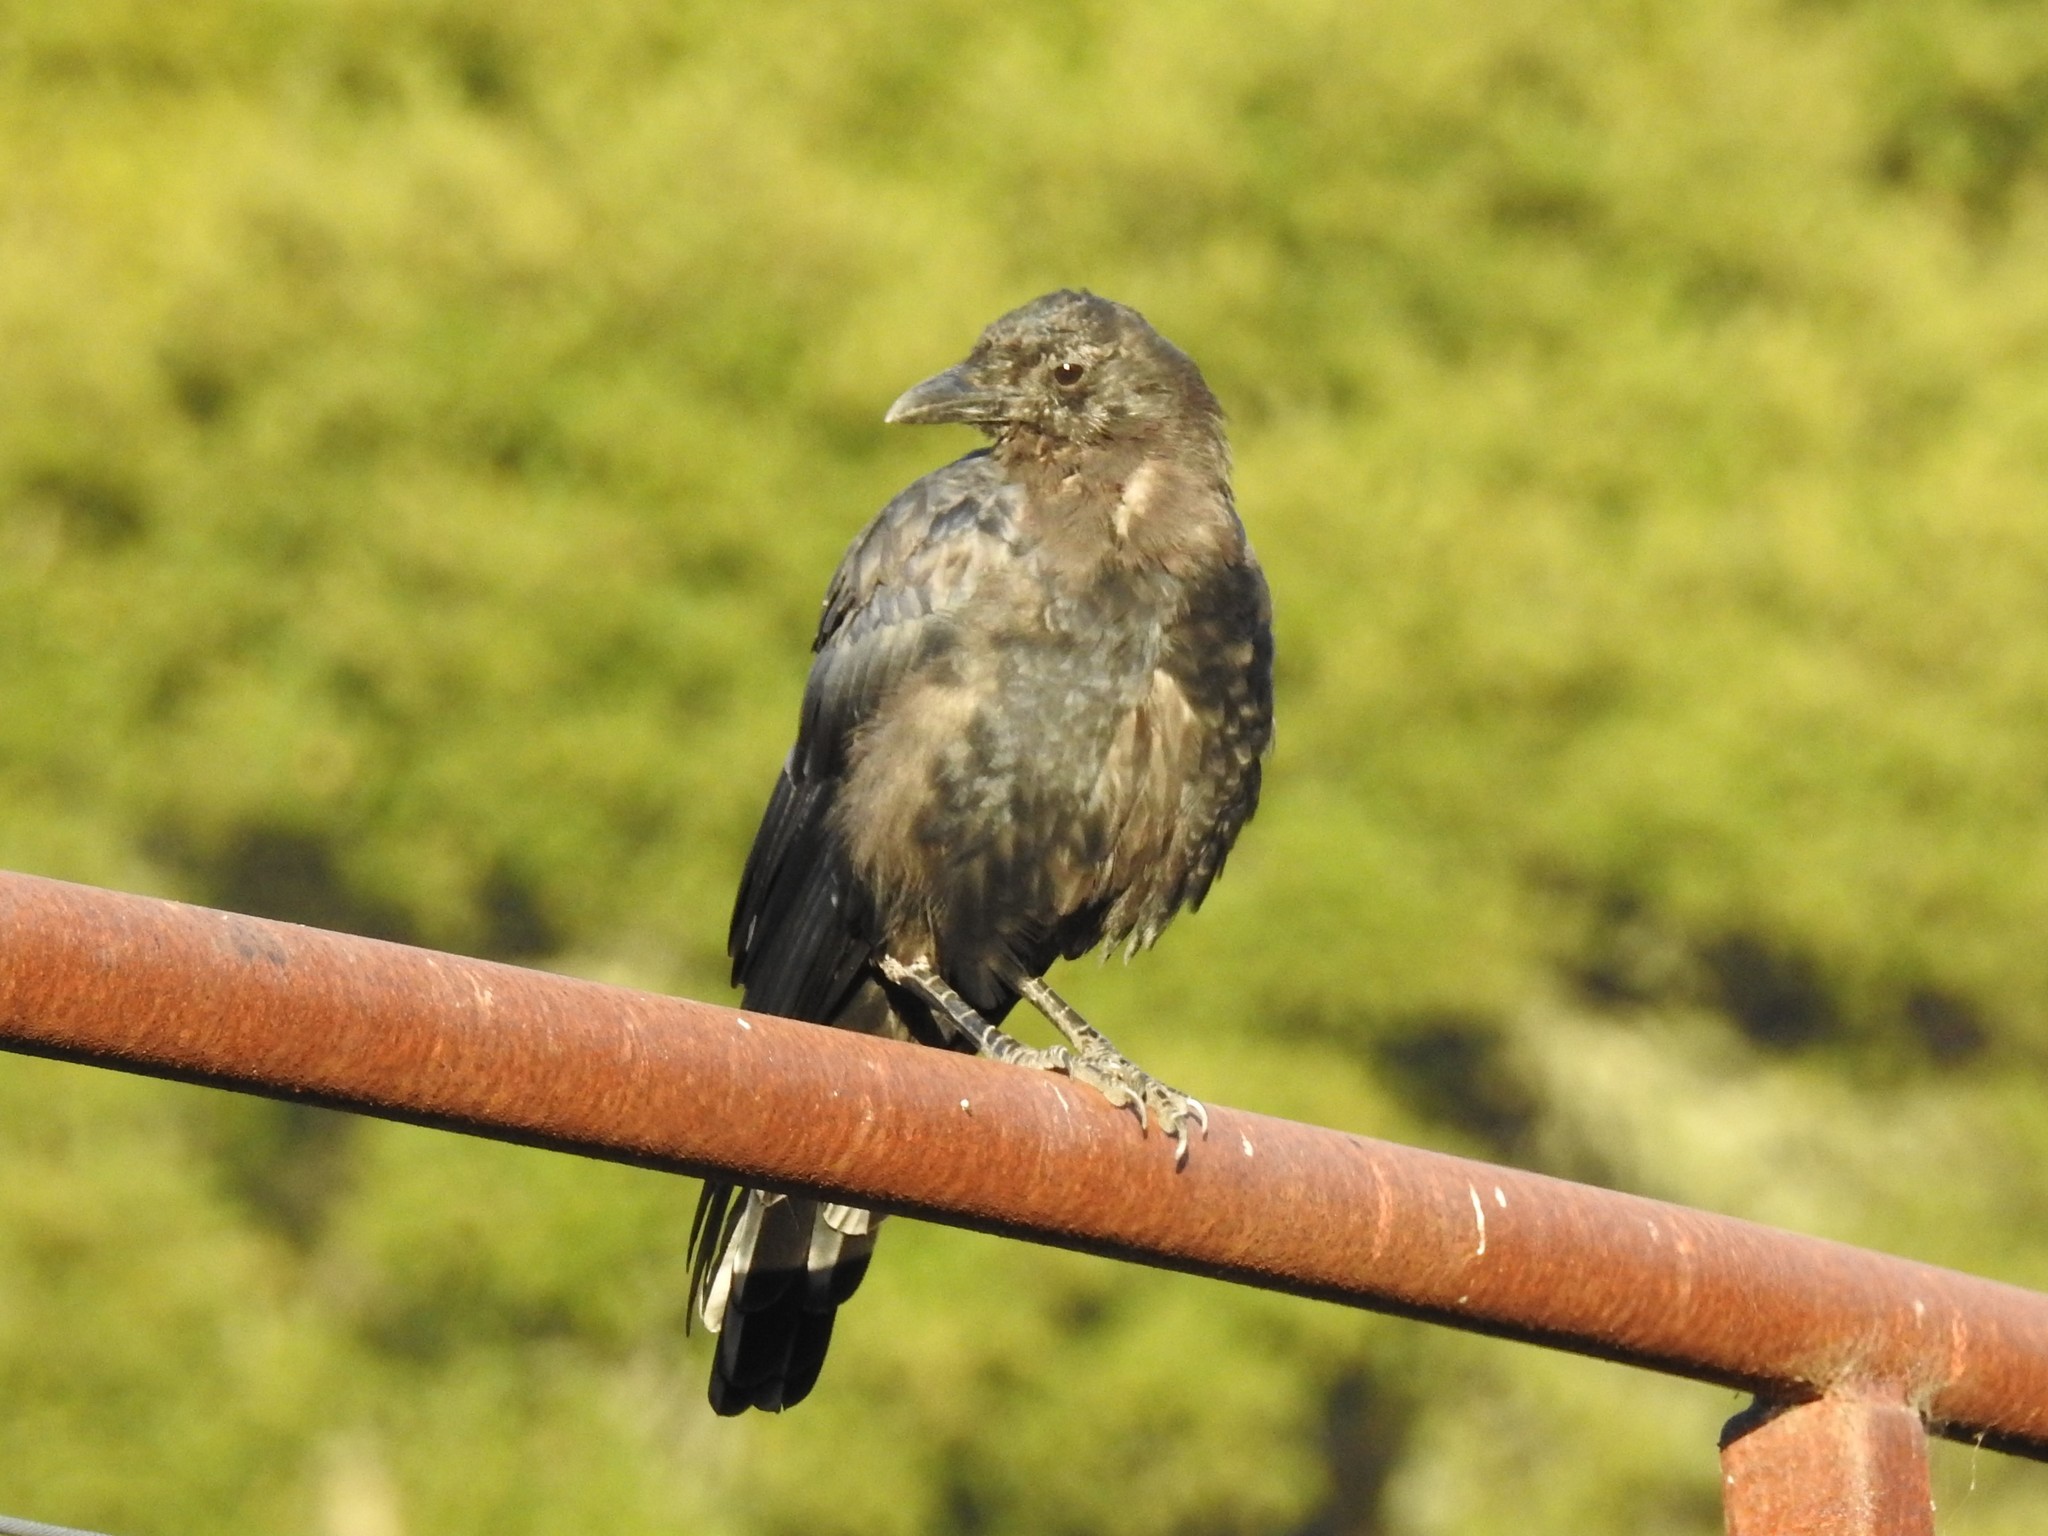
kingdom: Animalia
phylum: Chordata
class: Aves
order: Passeriformes
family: Corvidae
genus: Corvus
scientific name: Corvus brachyrhynchos
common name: American crow
